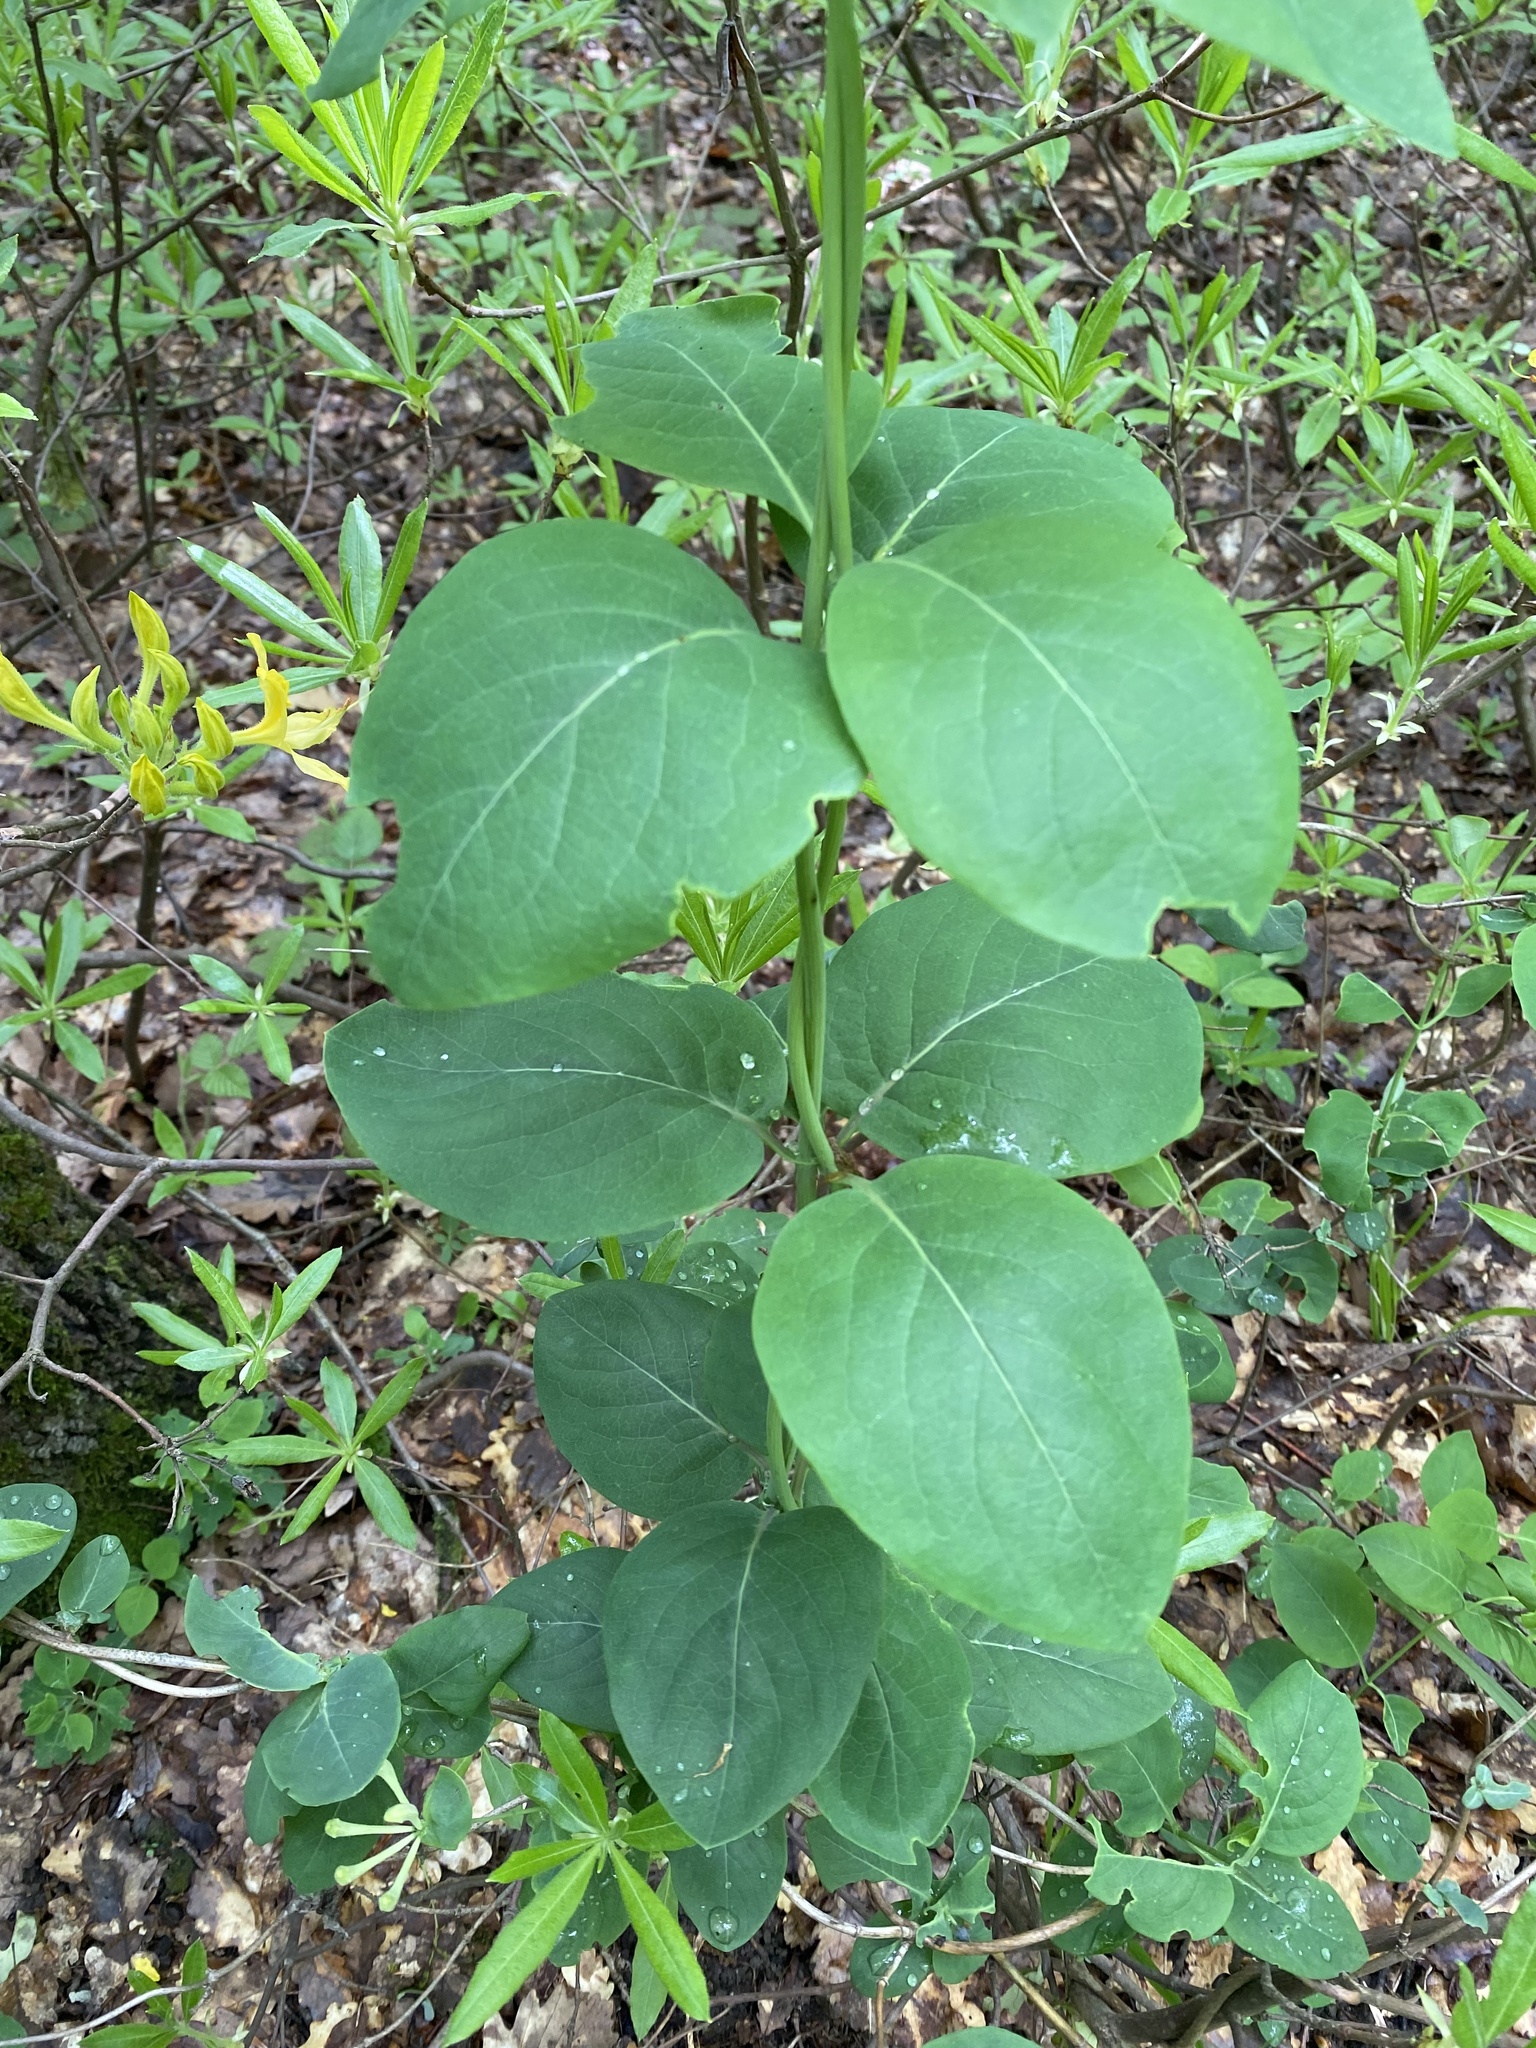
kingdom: Plantae
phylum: Tracheophyta
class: Magnoliopsida
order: Dipsacales
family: Caprifoliaceae
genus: Lonicera
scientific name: Lonicera caprifolium
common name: Perfoliate honeysuckle
